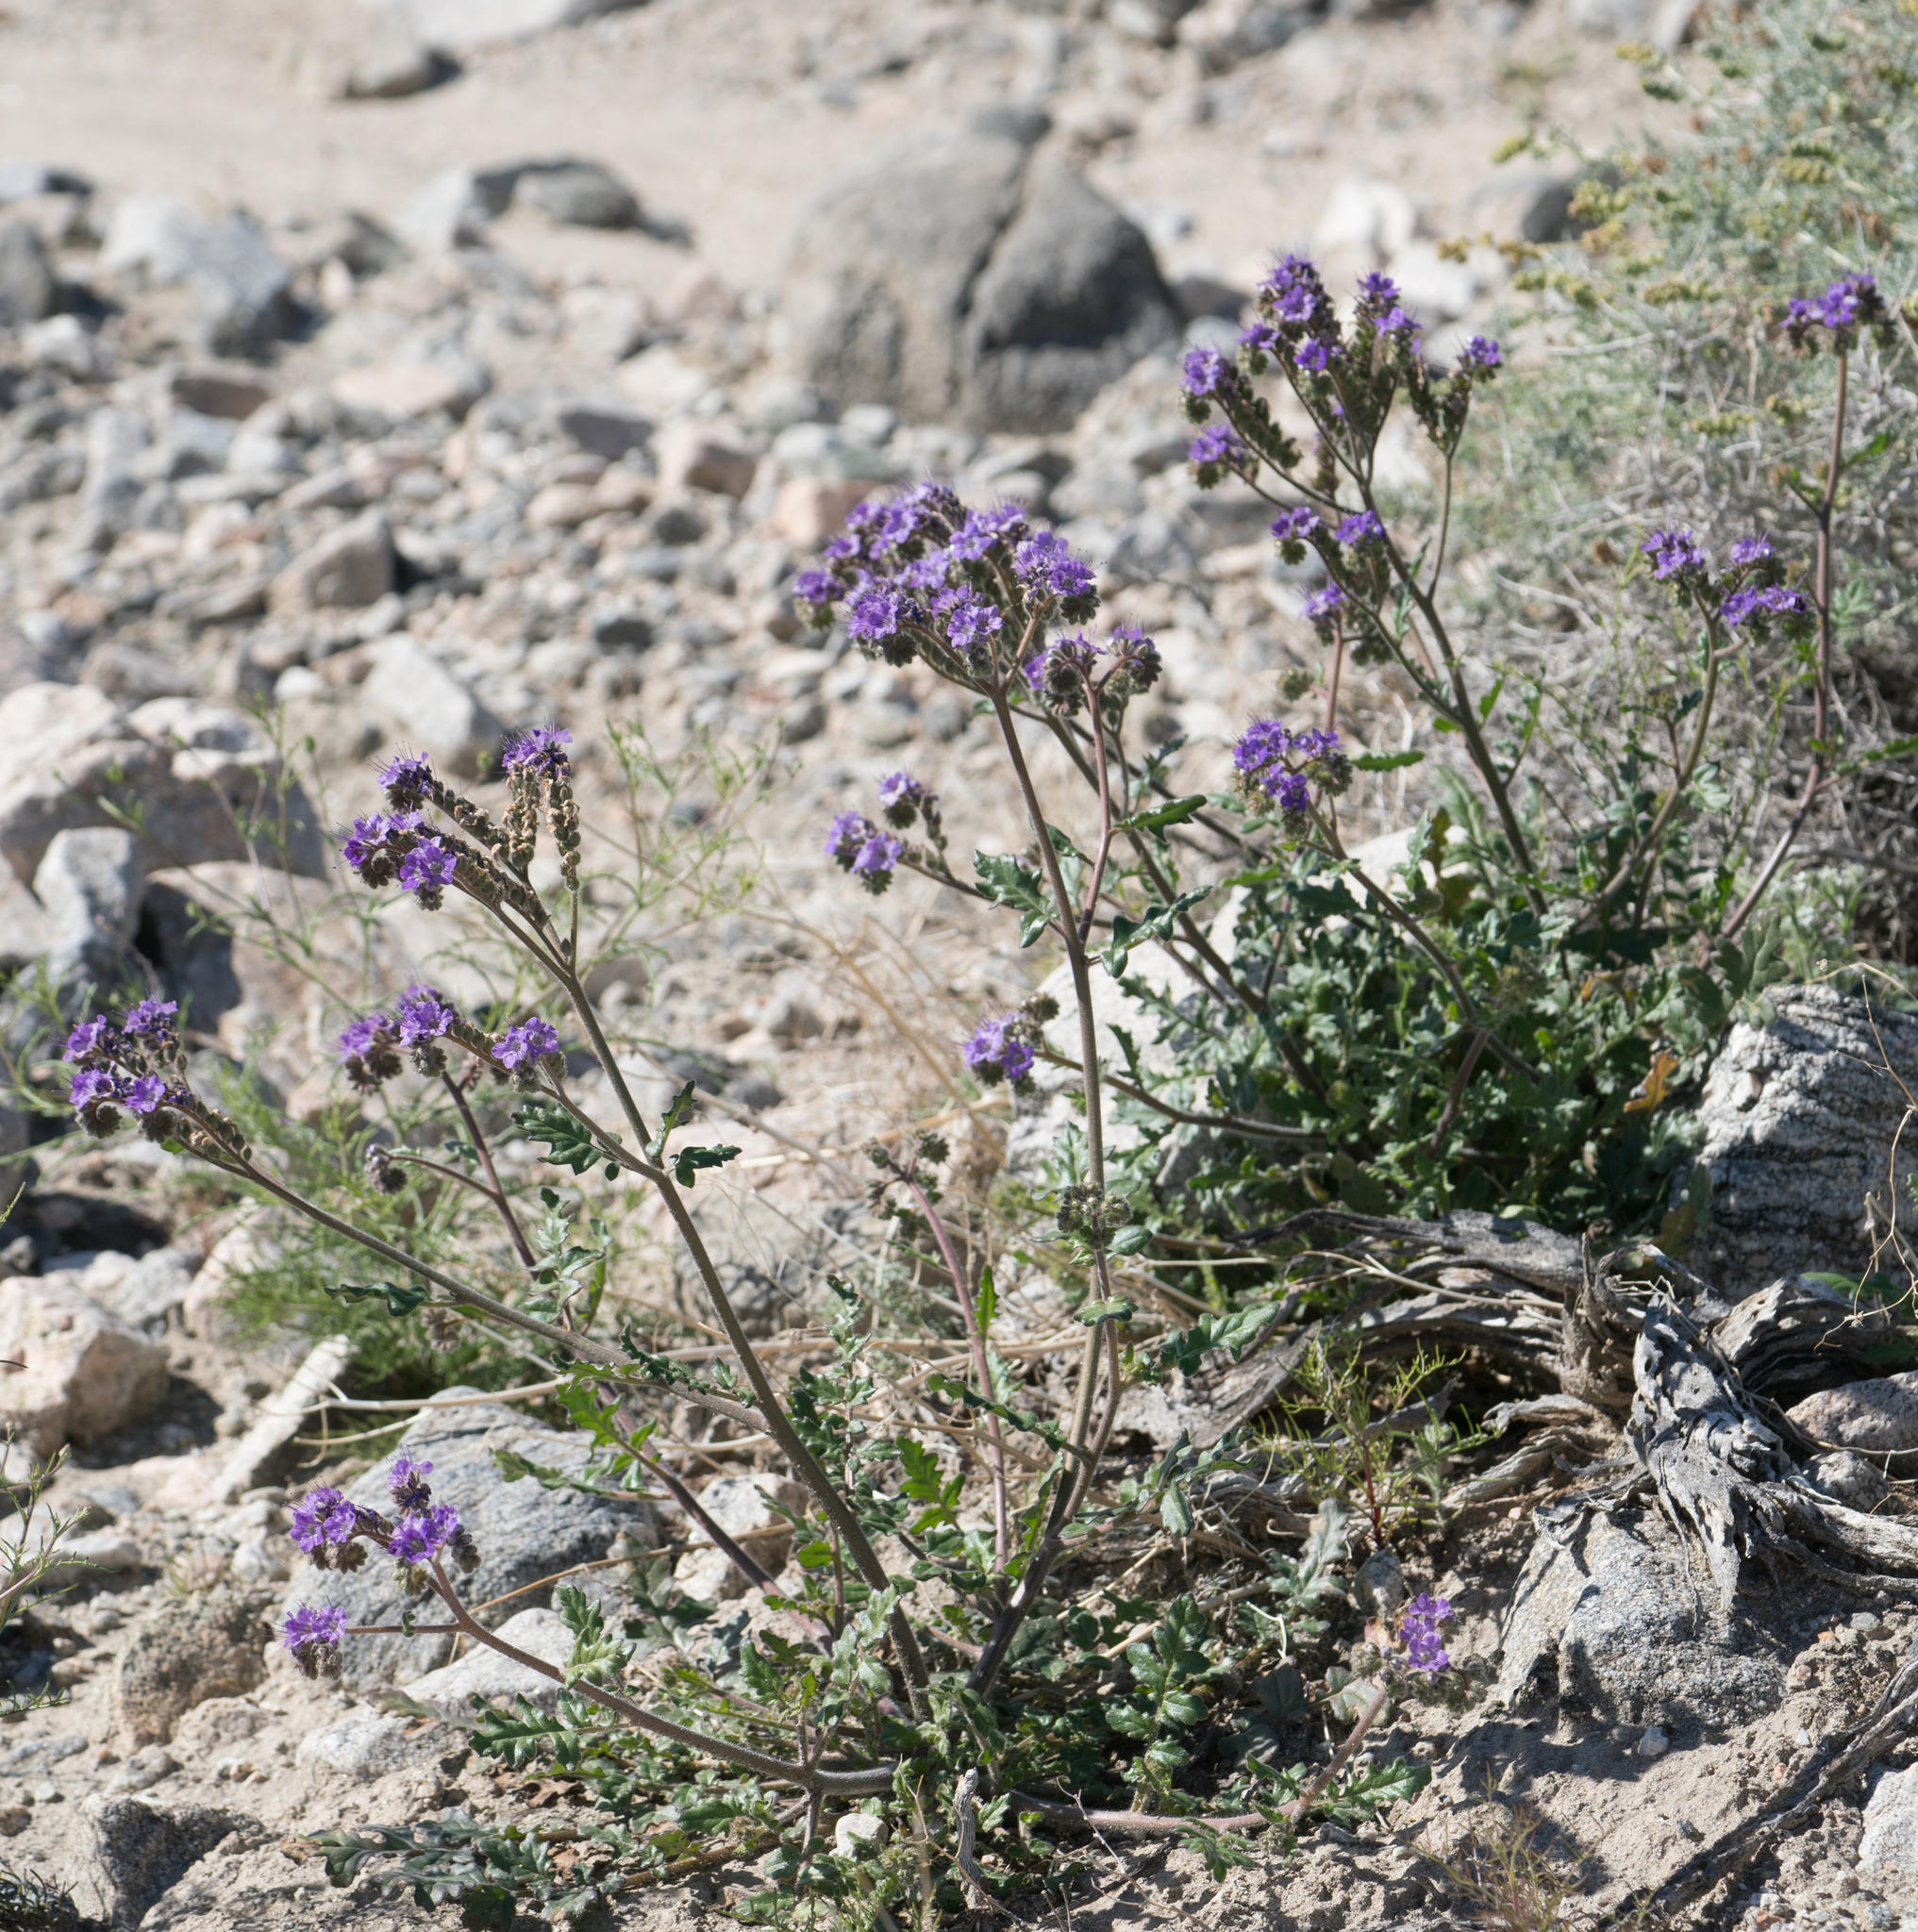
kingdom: Plantae
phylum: Tracheophyta
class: Magnoliopsida
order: Boraginales
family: Hydrophyllaceae
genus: Phacelia
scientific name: Phacelia crenulata
